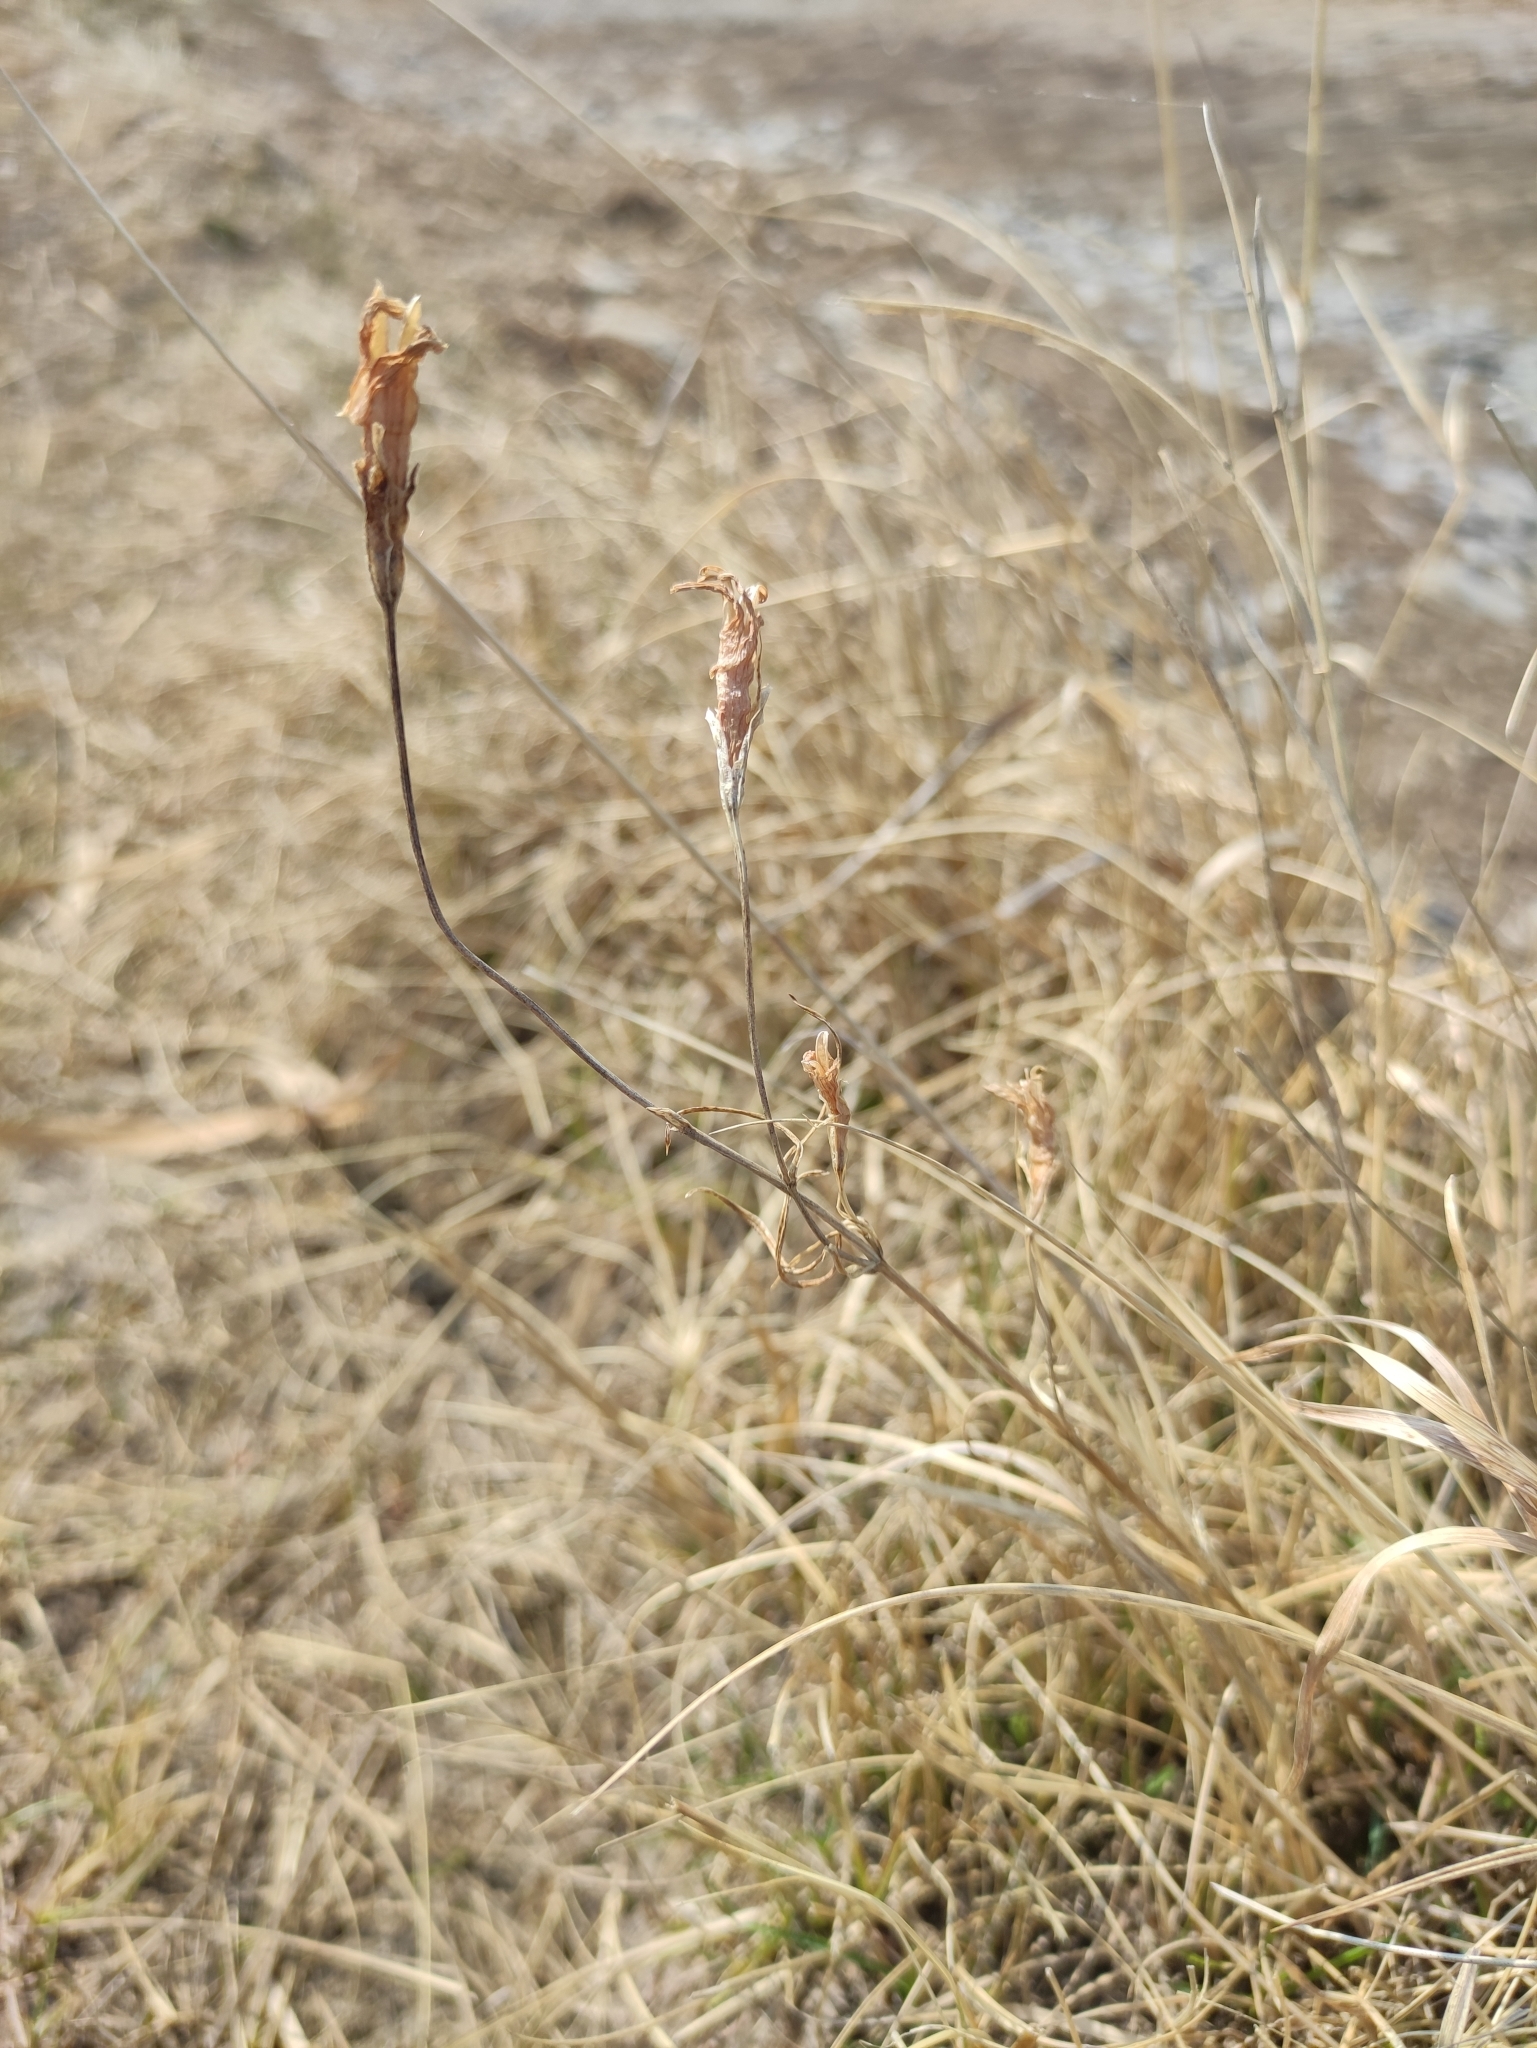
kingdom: Plantae
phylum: Tracheophyta
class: Magnoliopsida
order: Gentianales
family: Gentianaceae
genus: Gentianopsis
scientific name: Gentianopsis barbata
